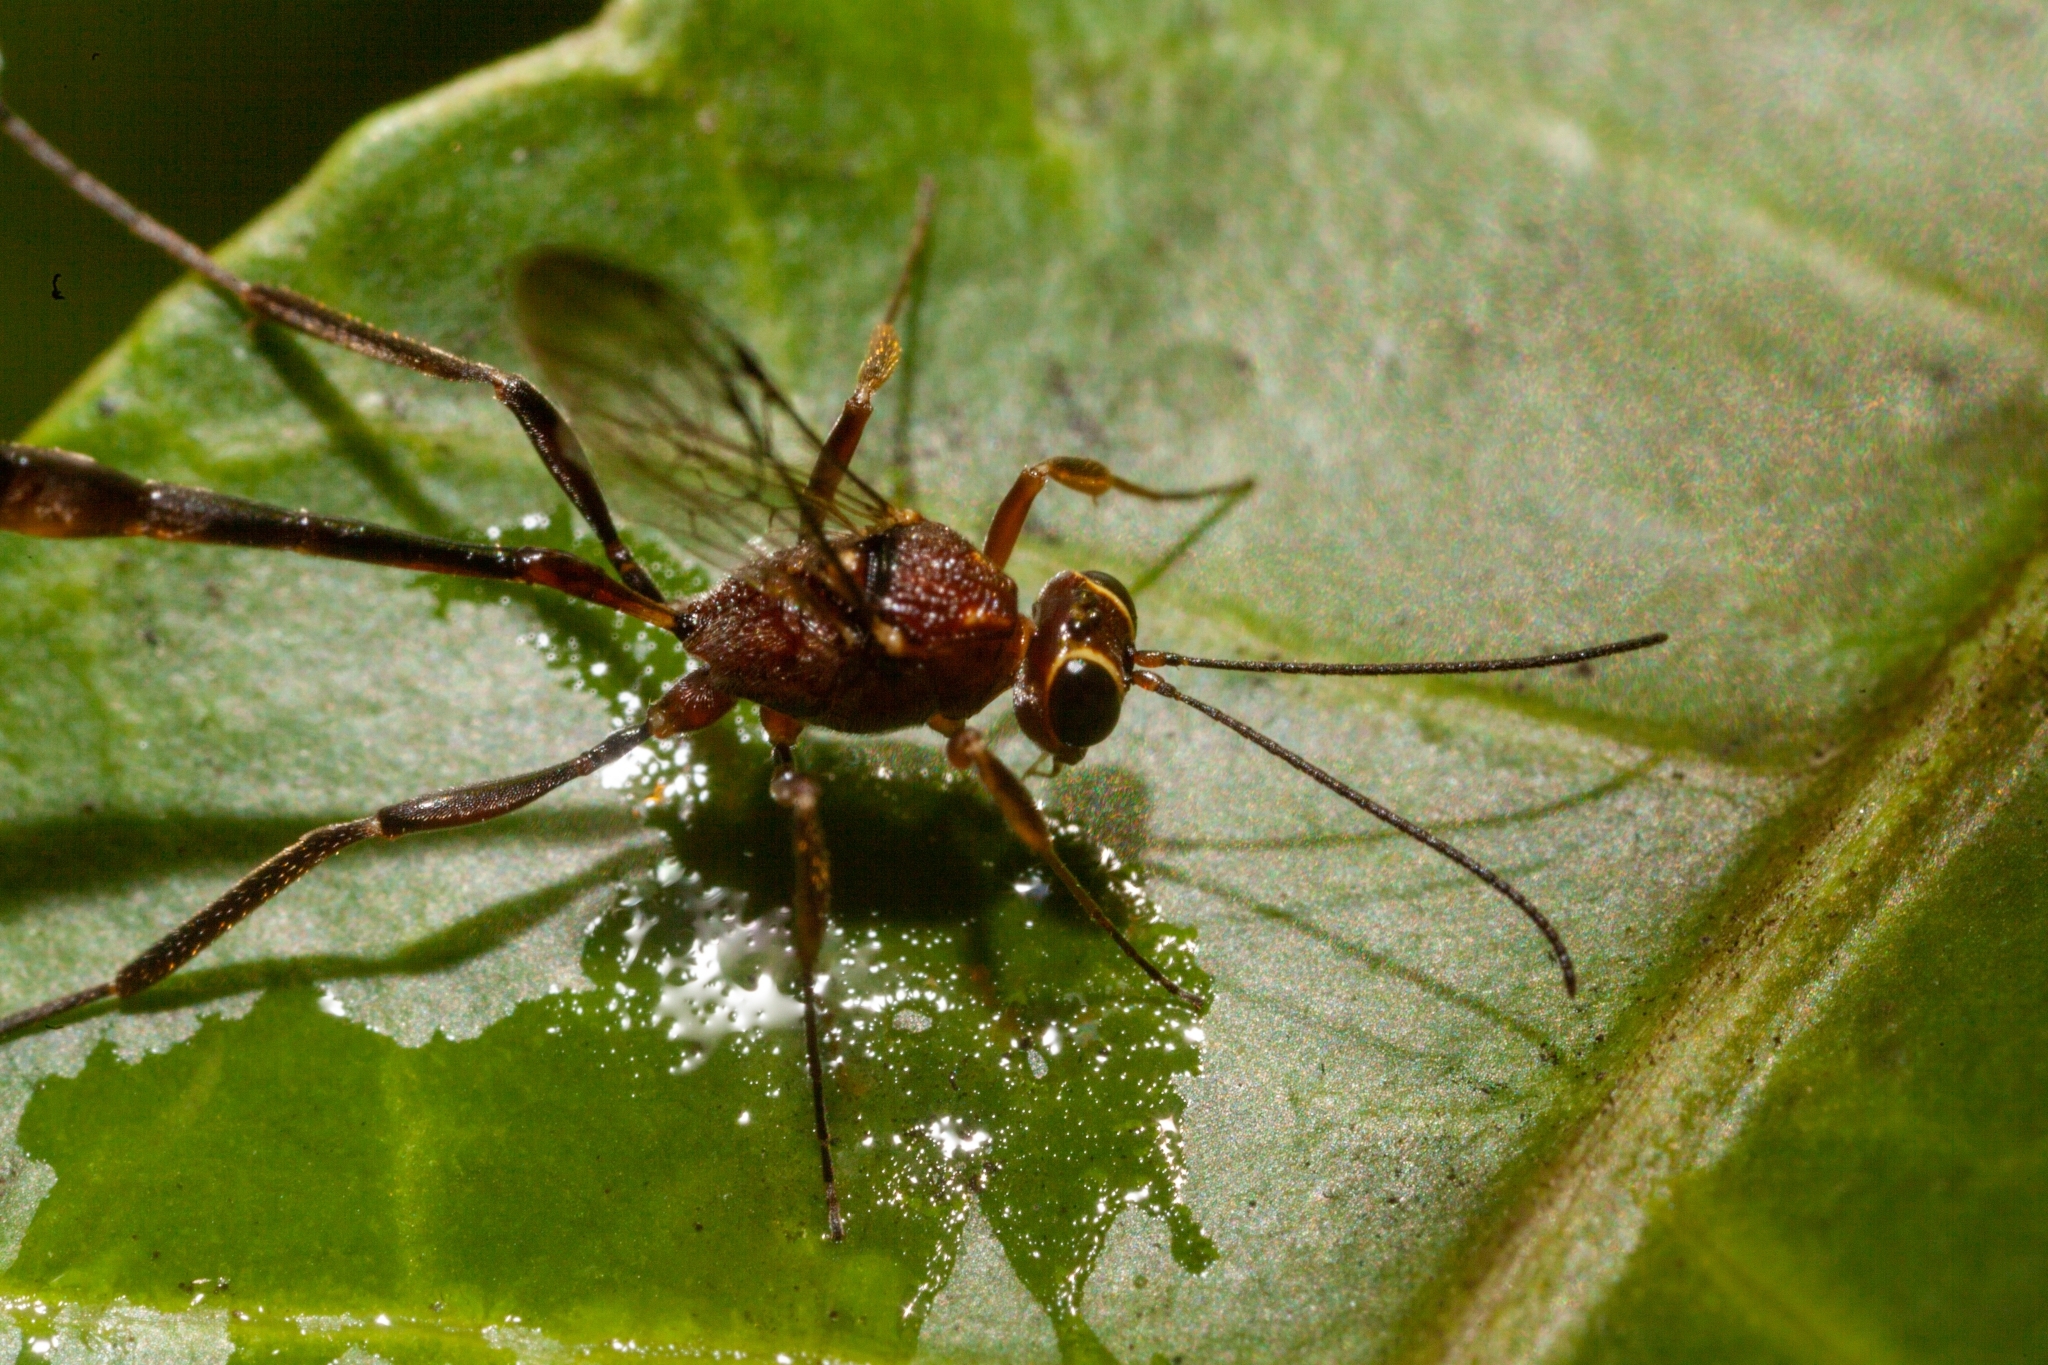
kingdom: Animalia
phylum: Arthropoda
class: Insecta
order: Hymenoptera
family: Ichneumonidae
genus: Anomalon
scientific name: Anomalon
